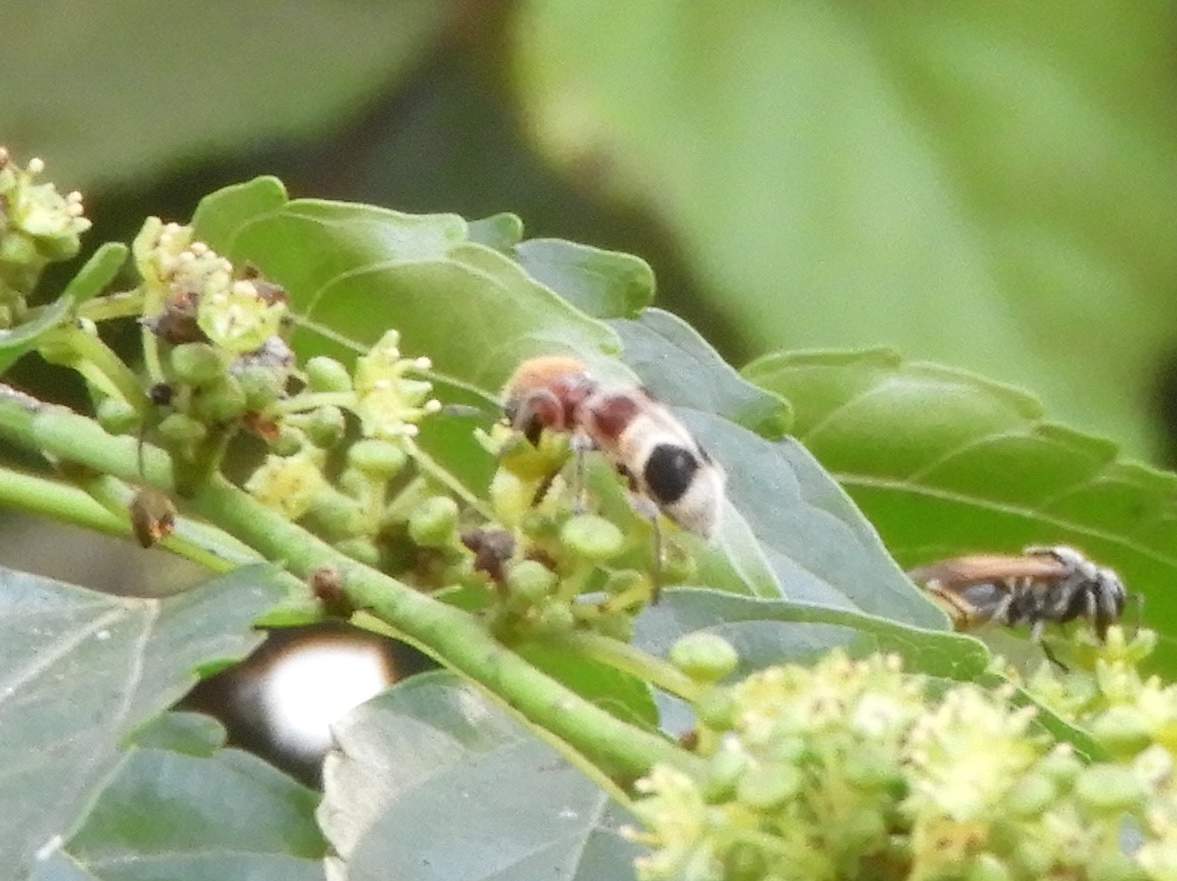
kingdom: Animalia
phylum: Arthropoda
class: Insecta
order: Coleoptera
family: Cleridae
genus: Enoclerus
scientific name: Enoclerus quadriguttatus
